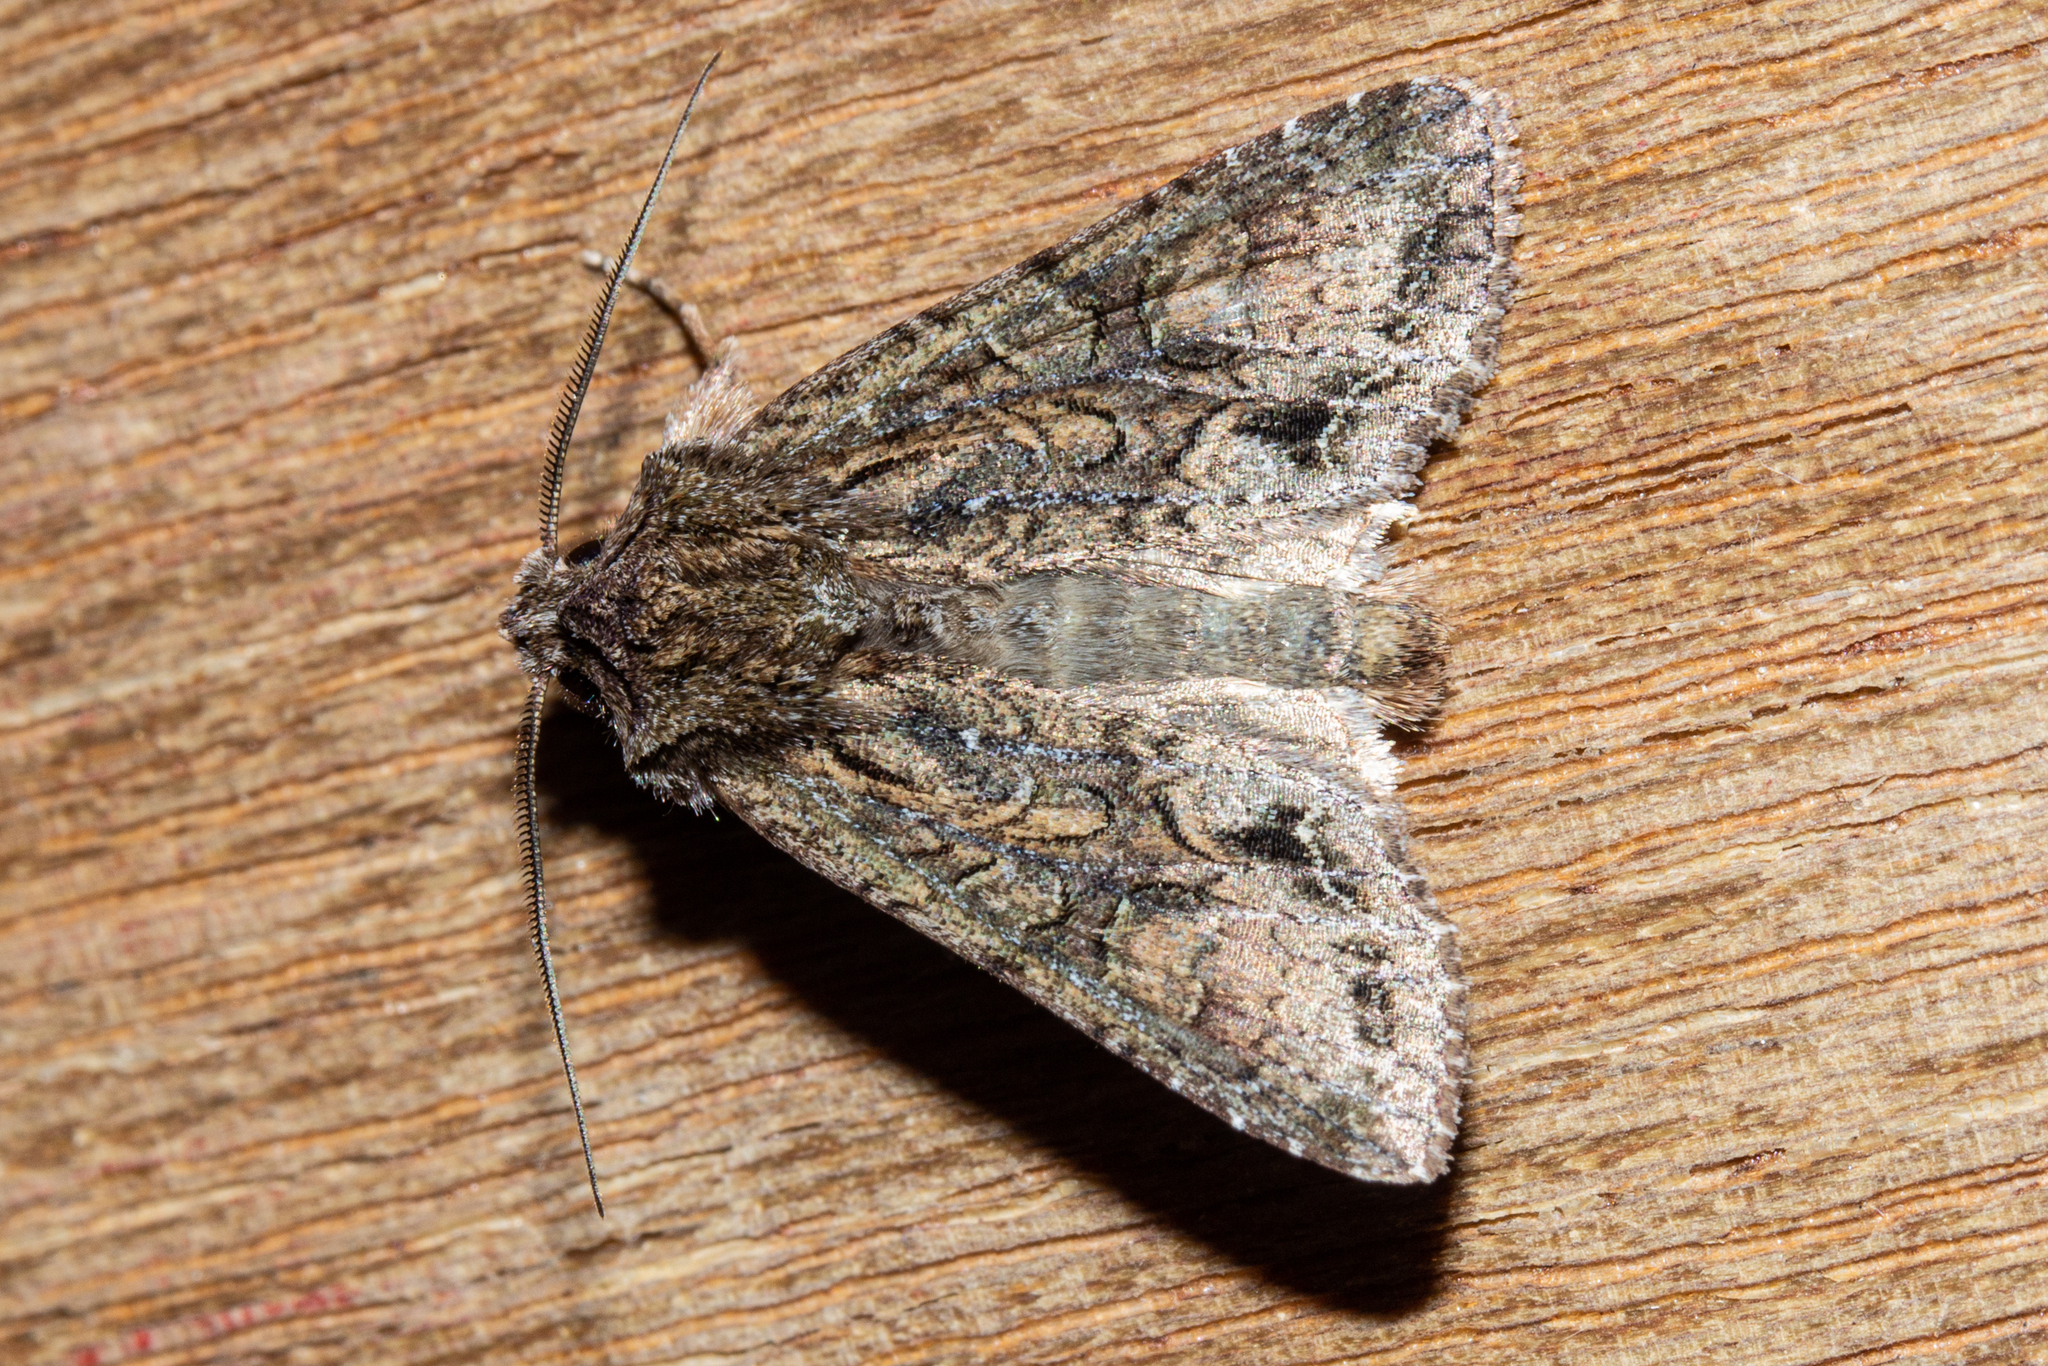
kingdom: Animalia
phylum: Arthropoda
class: Insecta
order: Lepidoptera
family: Noctuidae
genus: Ichneutica
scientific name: Ichneutica mutans
